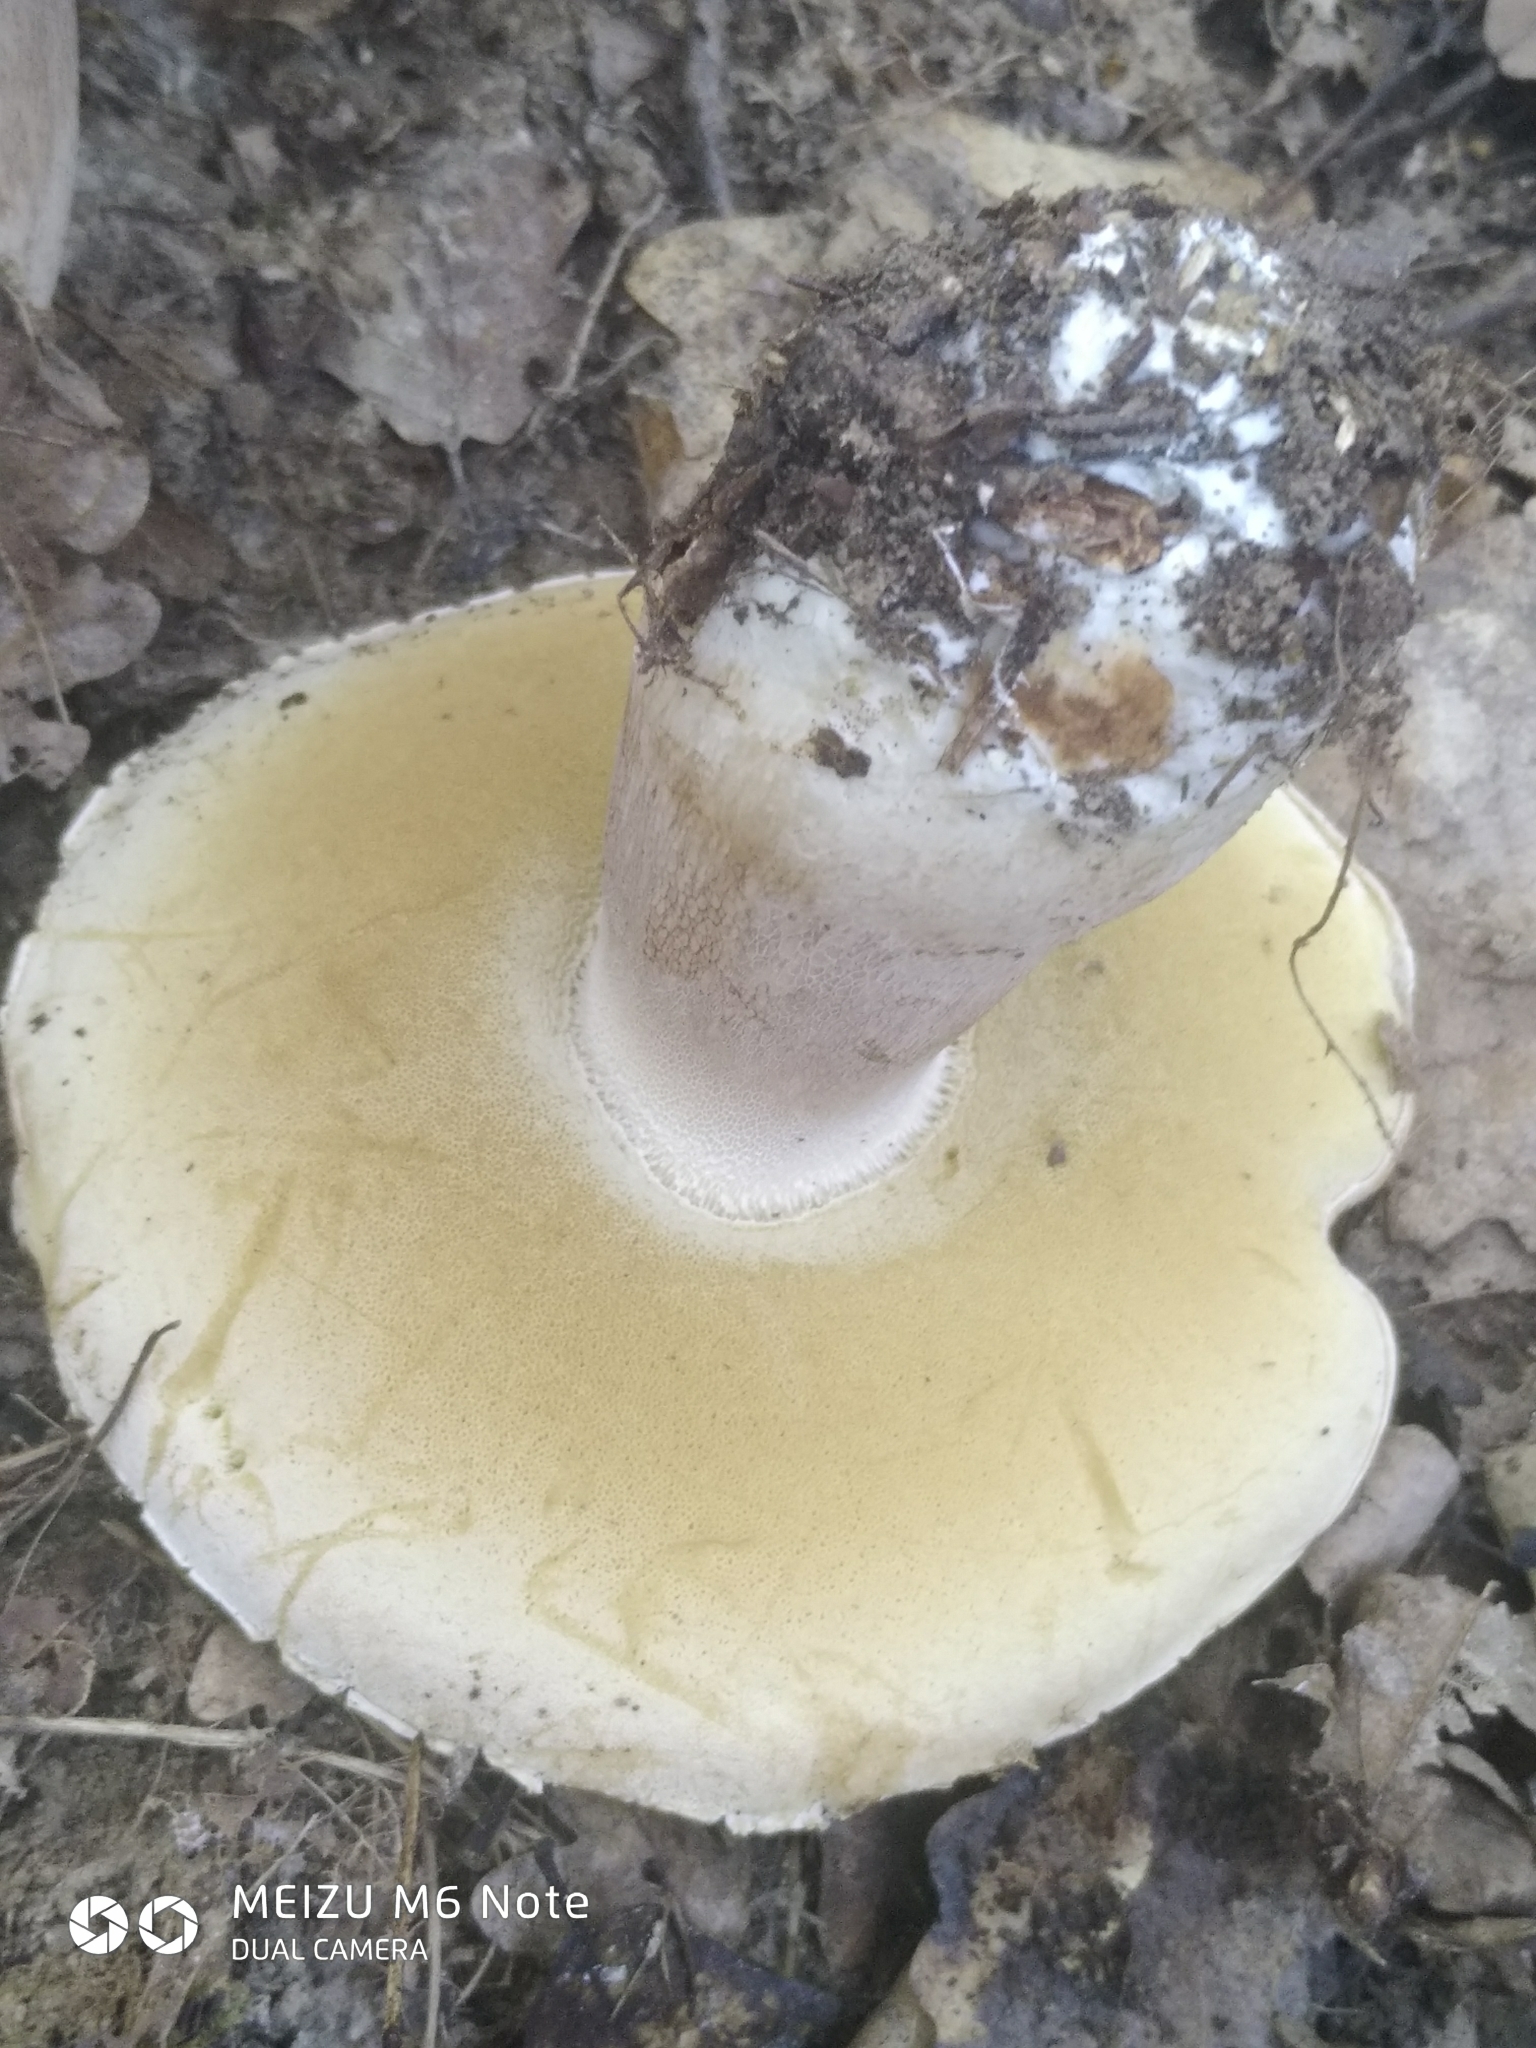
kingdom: Fungi
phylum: Basidiomycota
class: Agaricomycetes
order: Boletales
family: Boletaceae
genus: Boletus
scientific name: Boletus reticulatus
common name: Summer bolete
